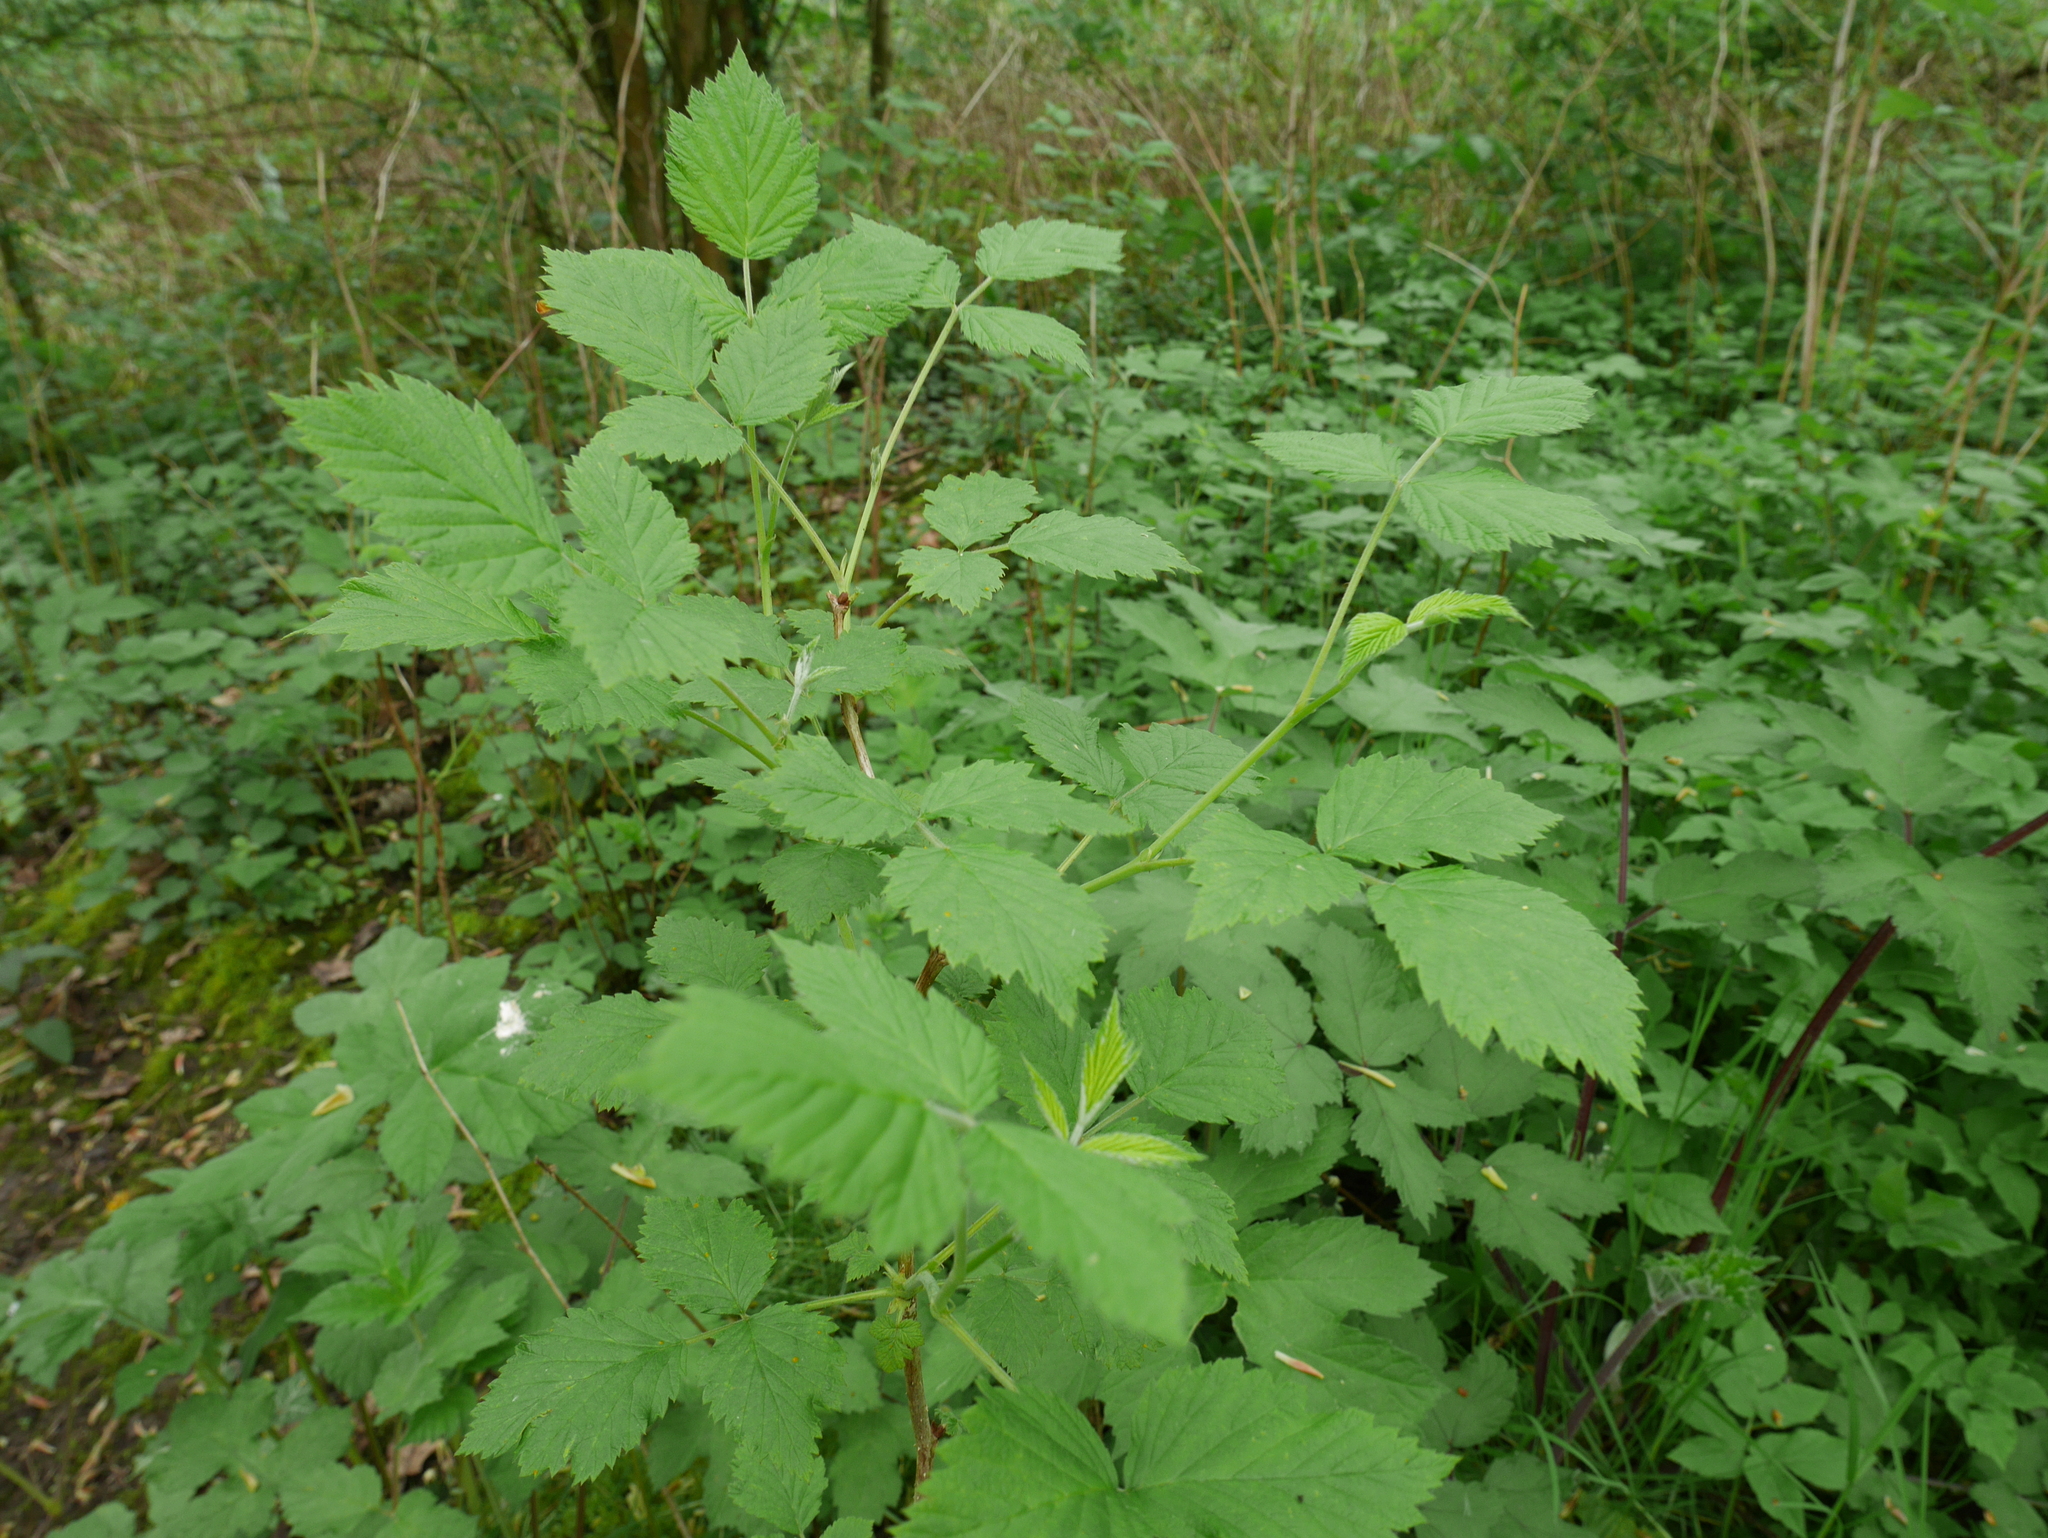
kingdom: Plantae
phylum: Tracheophyta
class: Magnoliopsida
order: Rosales
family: Rosaceae
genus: Rubus
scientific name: Rubus idaeus
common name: Raspberry
